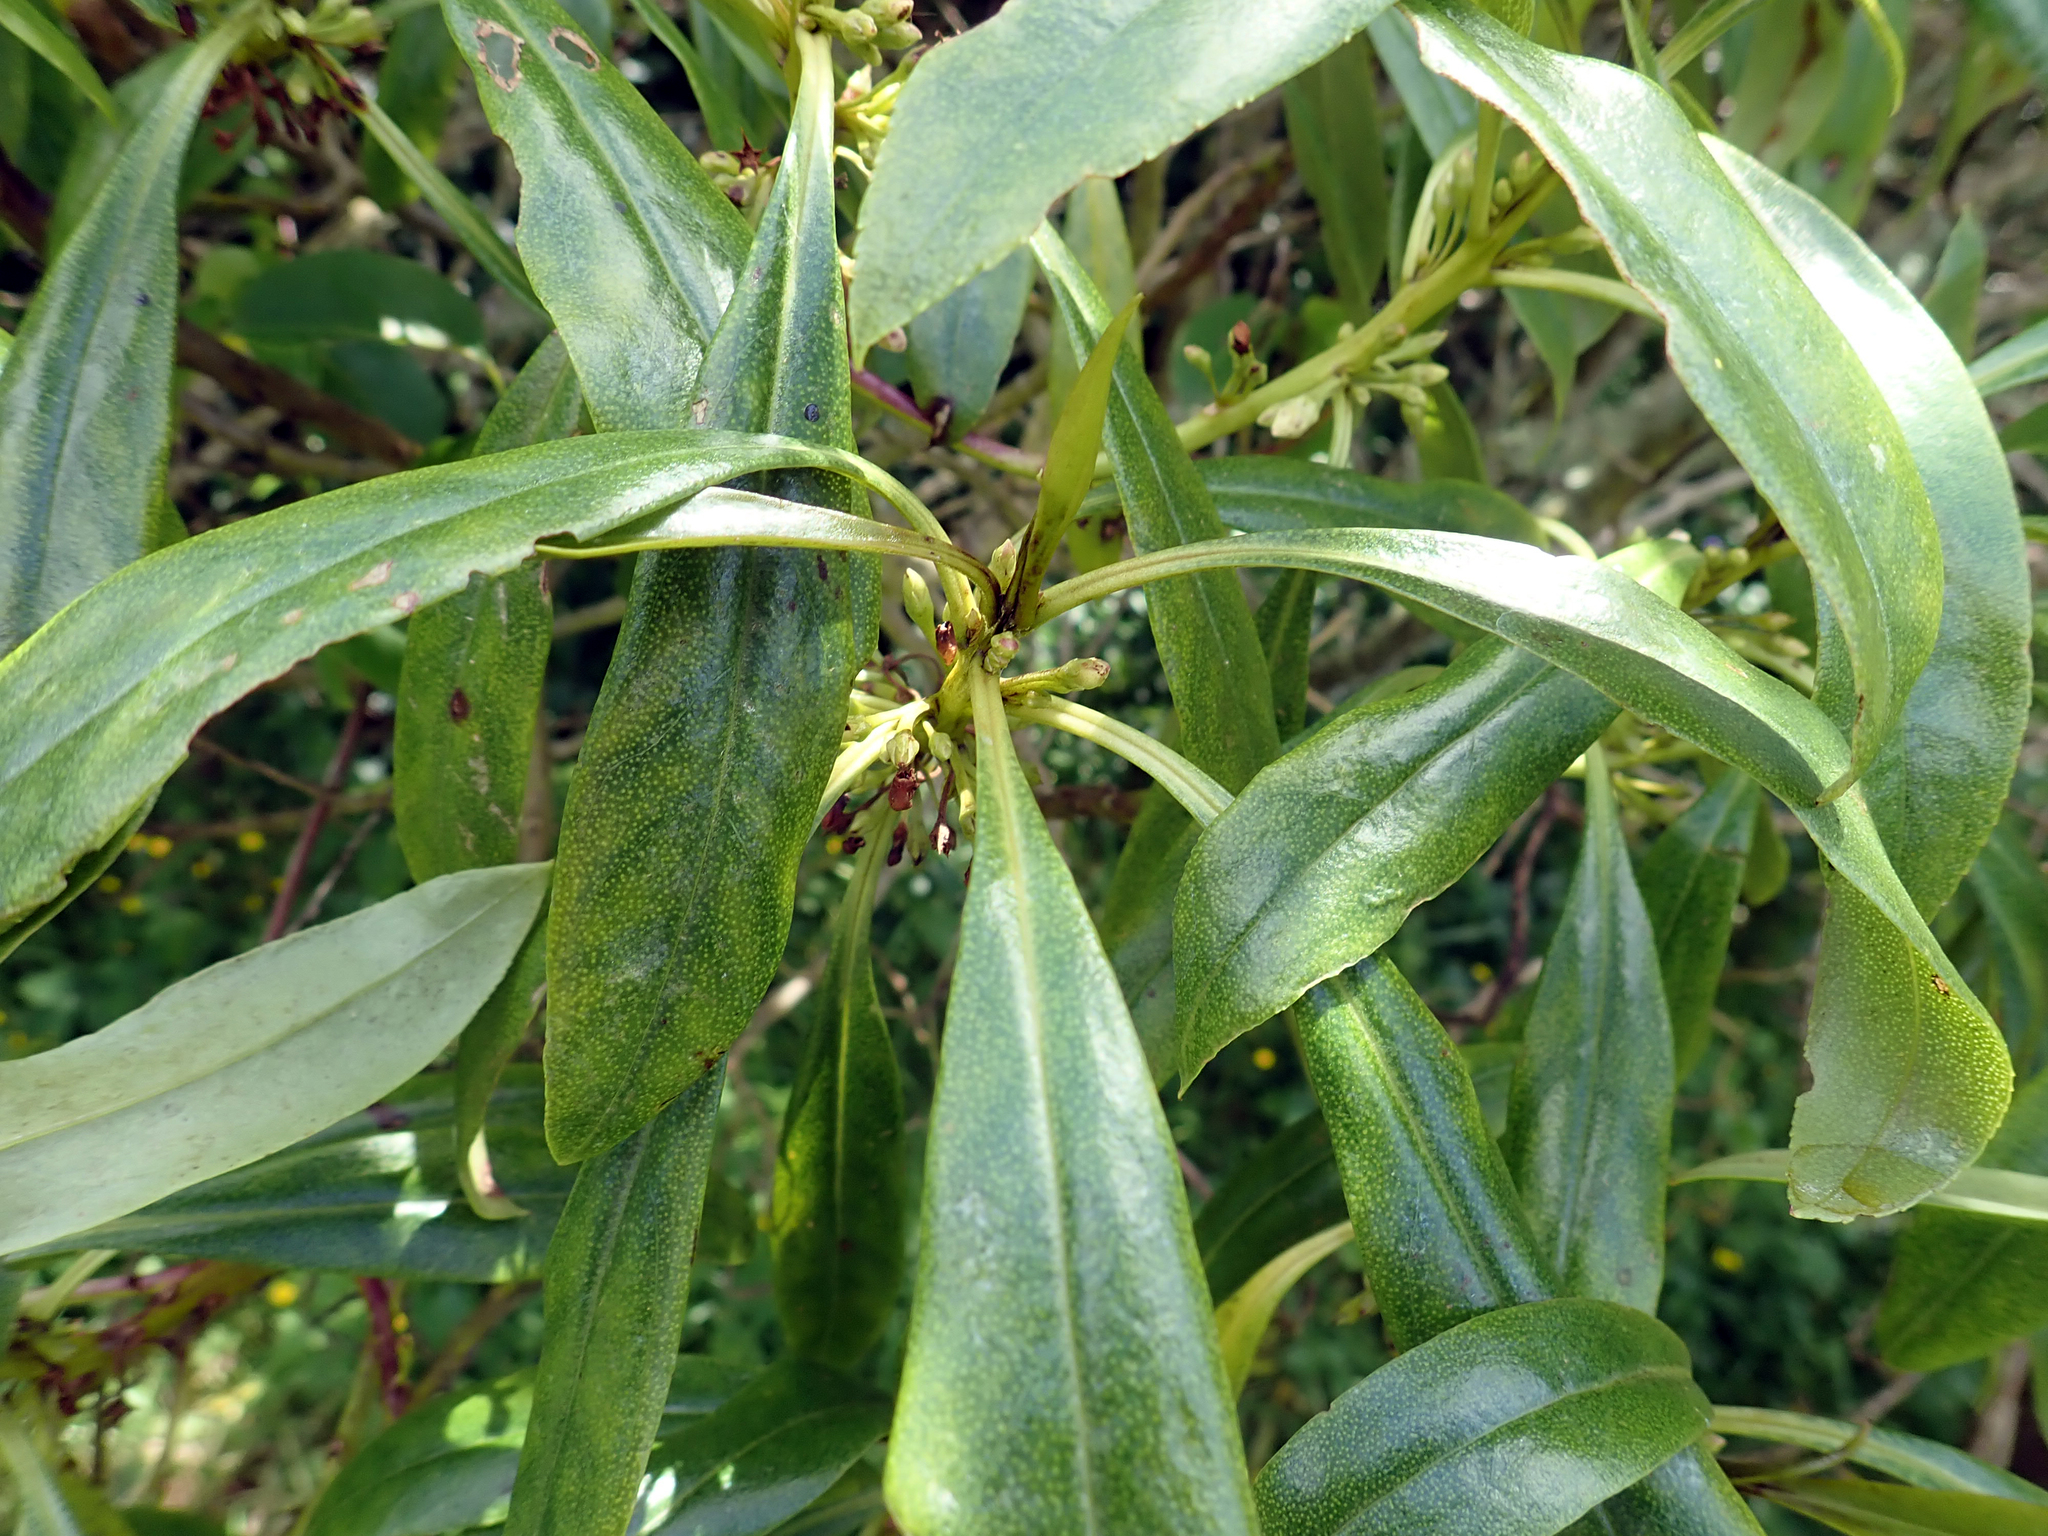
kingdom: Plantae
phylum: Tracheophyta
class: Magnoliopsida
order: Lamiales
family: Scrophulariaceae
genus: Myoporum
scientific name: Myoporum laetum
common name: Ngaio tree
